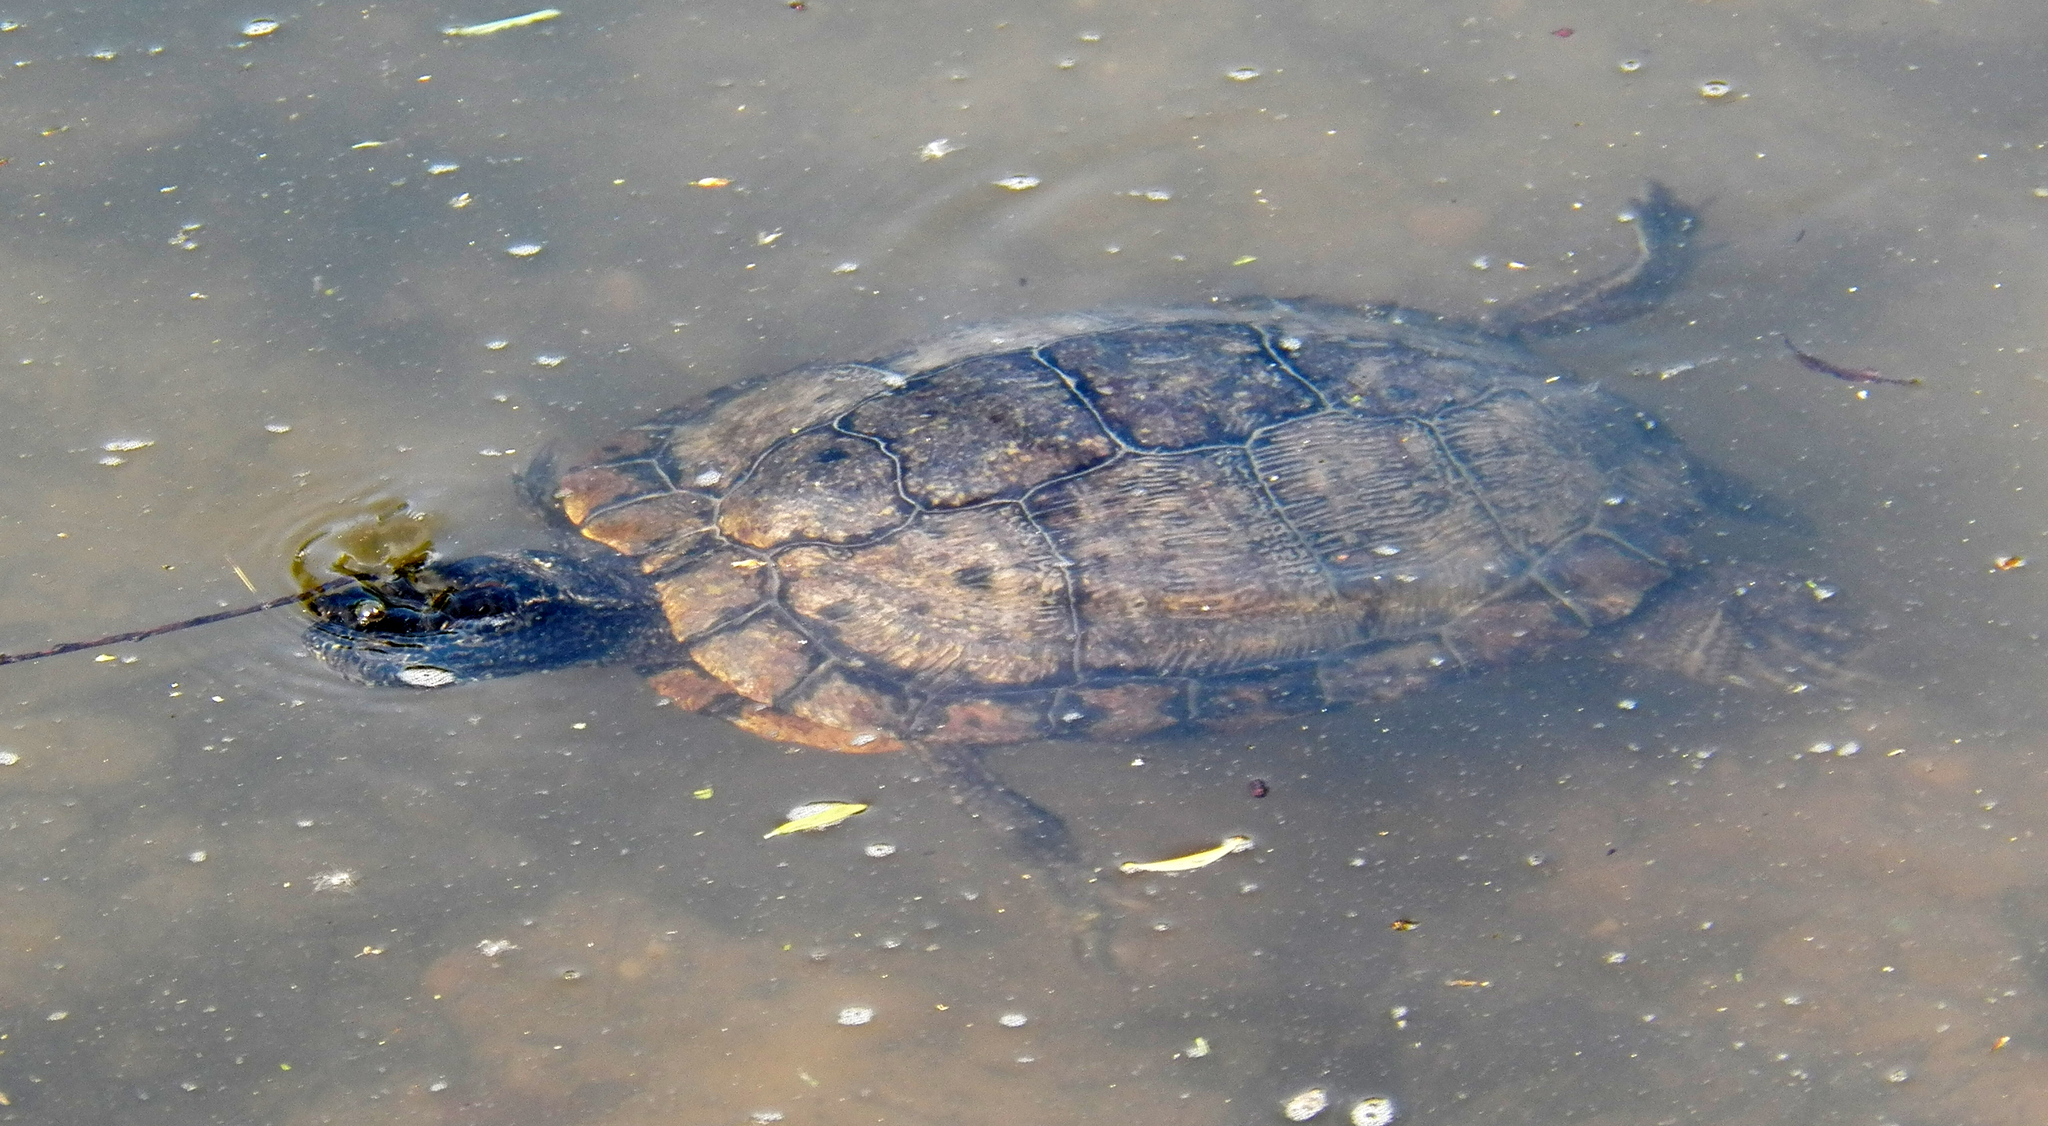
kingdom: Animalia
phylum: Chordata
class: Testudines
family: Emydidae
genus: Trachemys
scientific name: Trachemys scripta
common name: Slider
